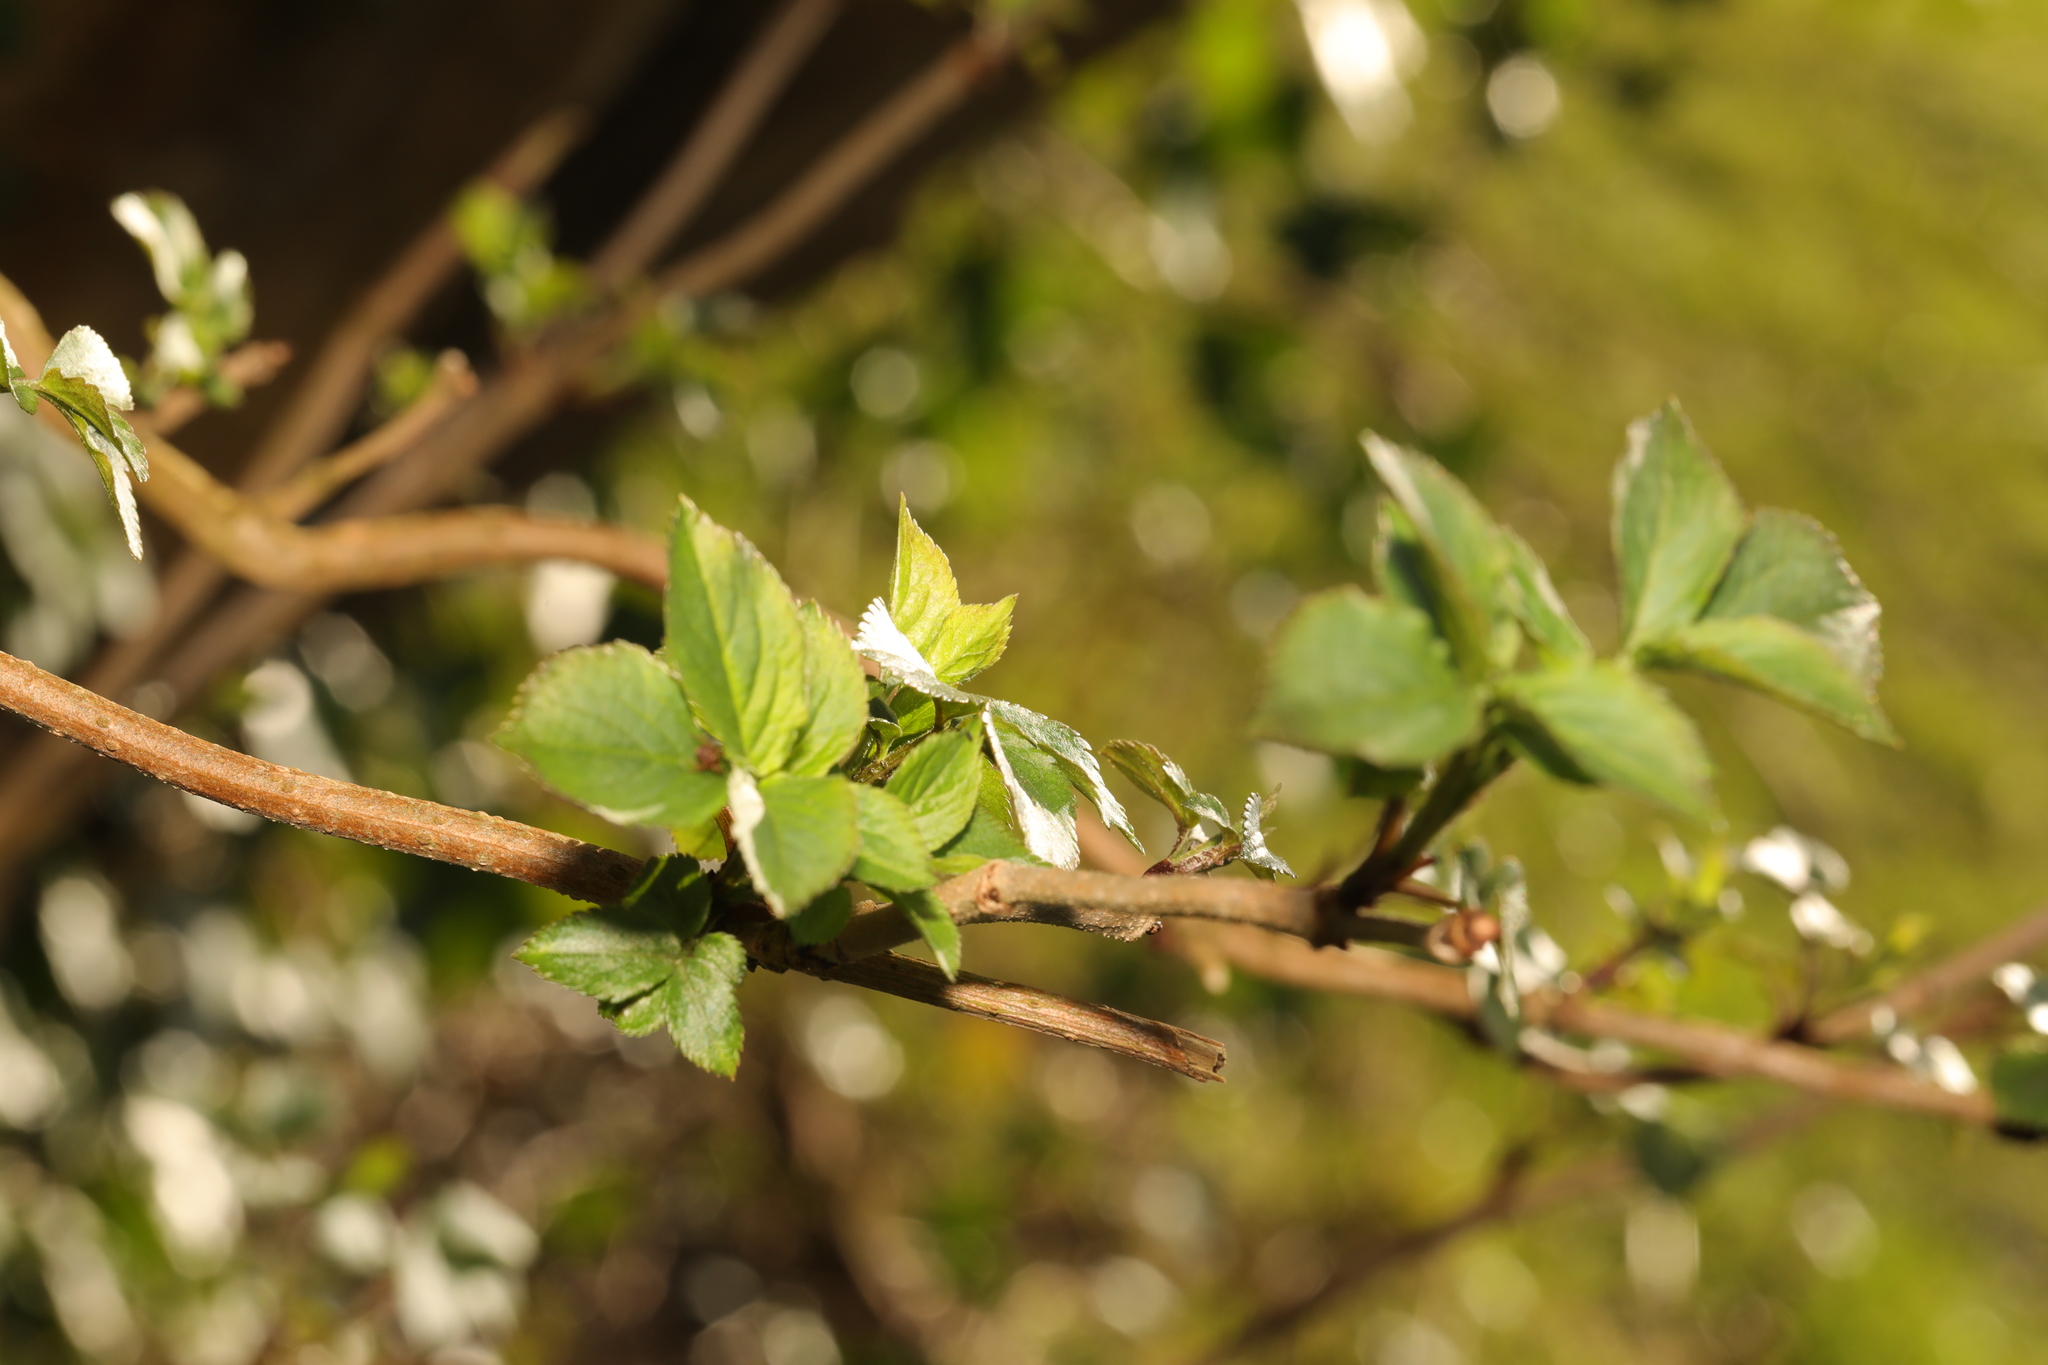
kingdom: Plantae
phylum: Tracheophyta
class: Magnoliopsida
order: Dipsacales
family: Viburnaceae
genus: Sambucus
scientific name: Sambucus nigra
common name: Elder
